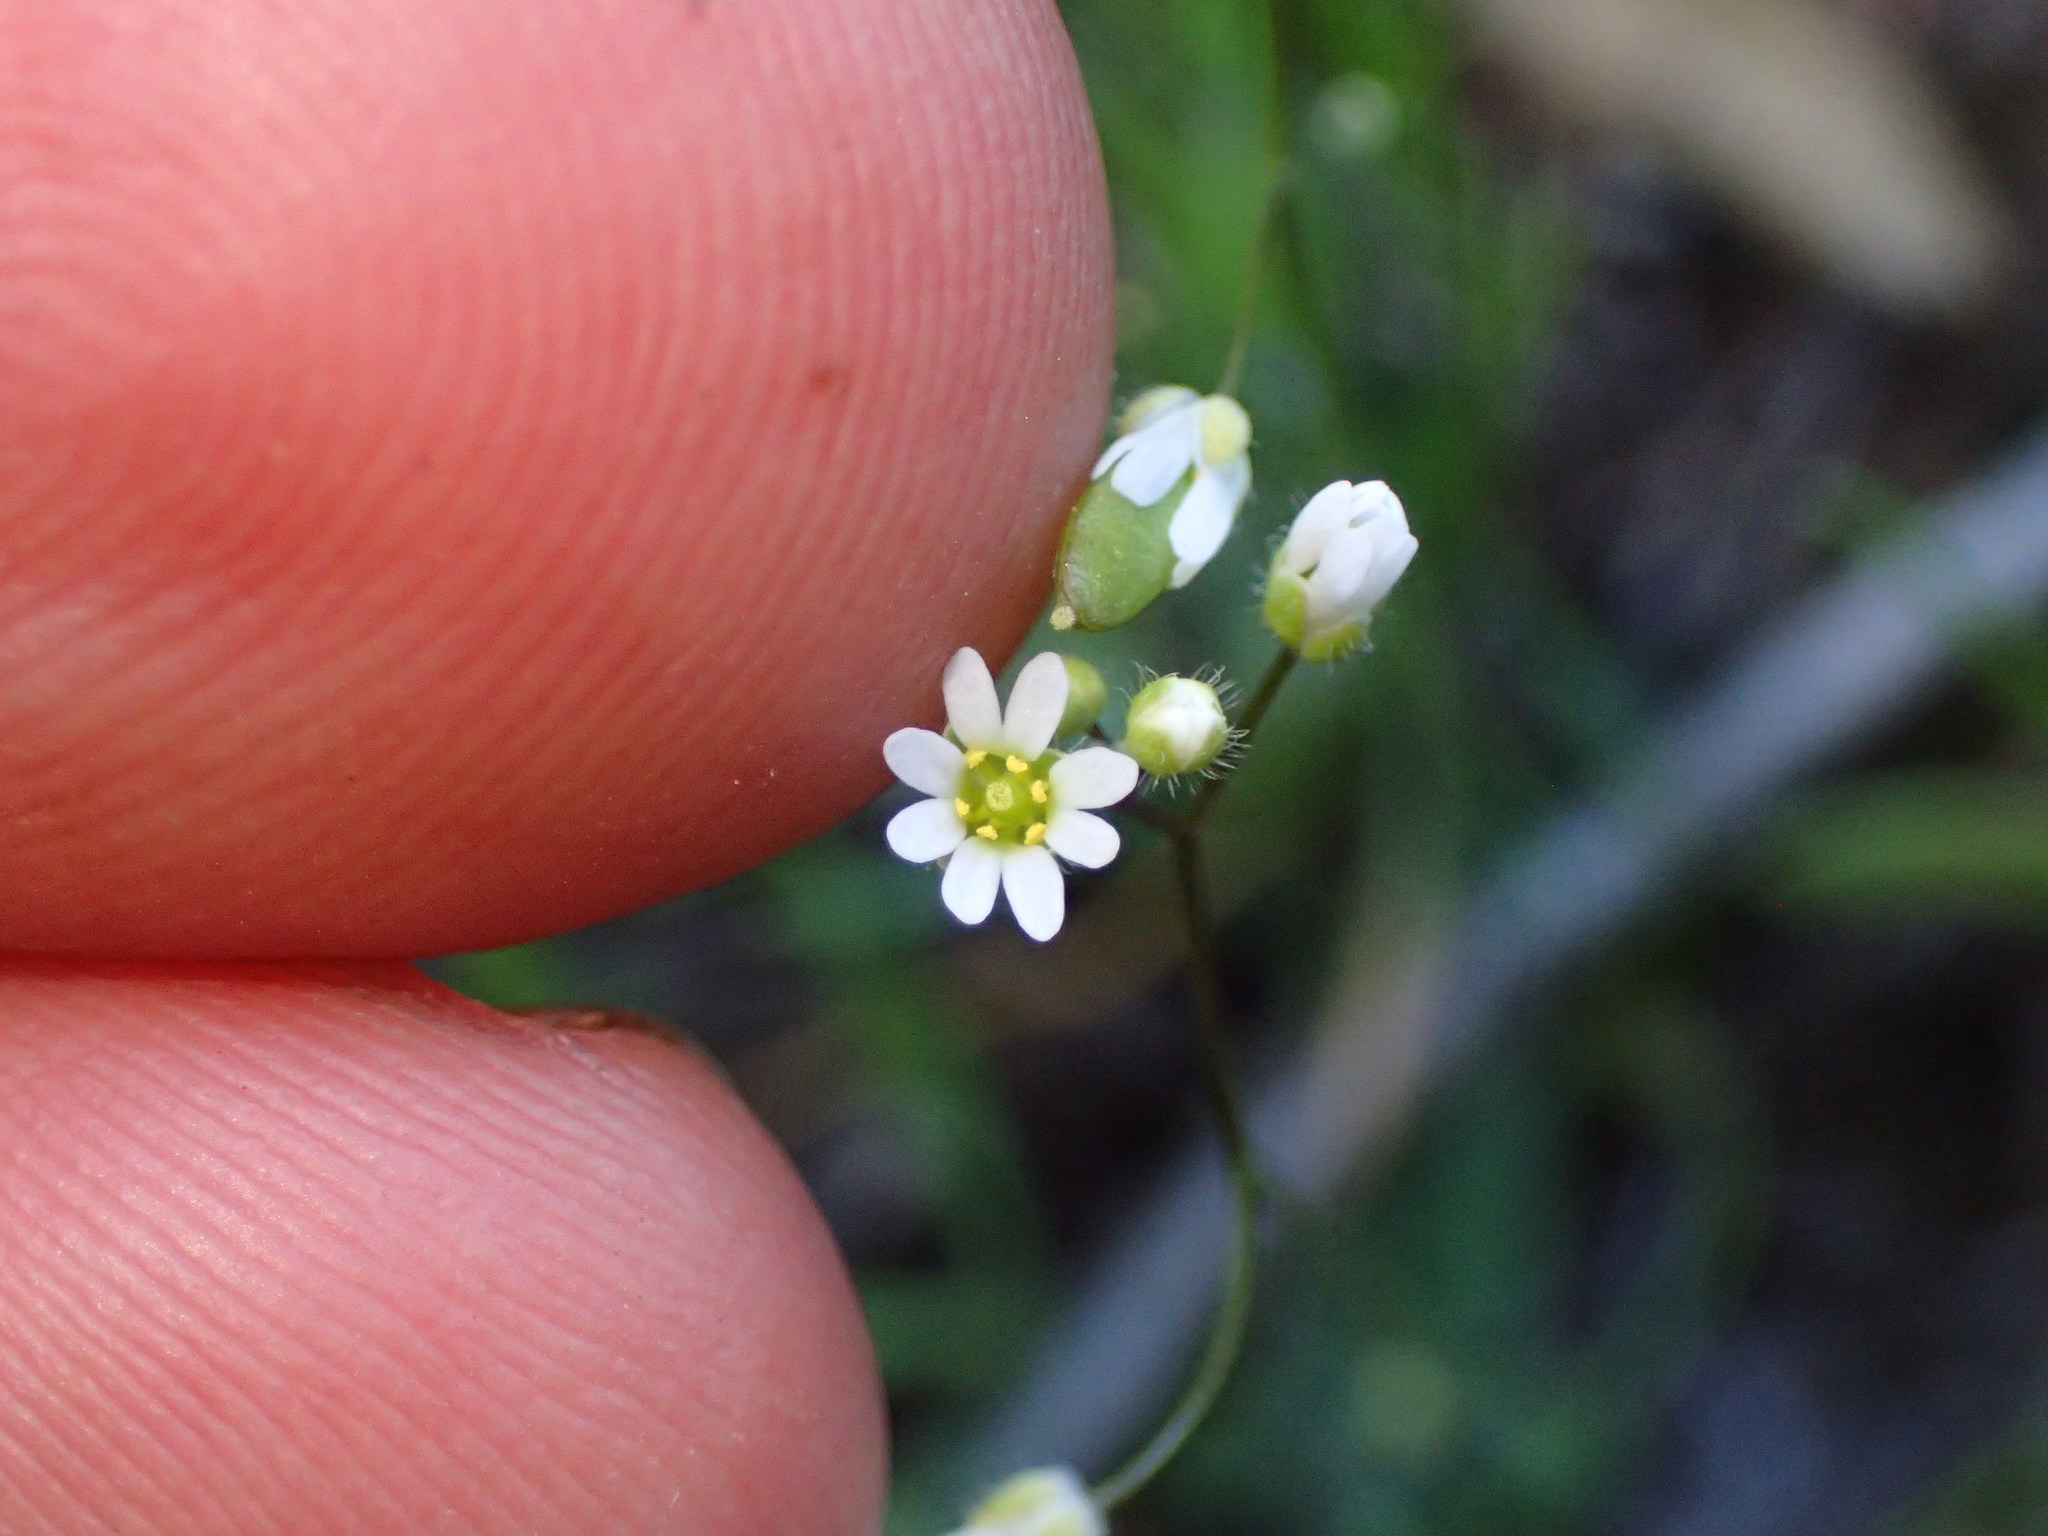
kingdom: Plantae
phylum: Tracheophyta
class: Magnoliopsida
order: Brassicales
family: Brassicaceae
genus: Draba
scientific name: Draba verna
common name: Spring draba
